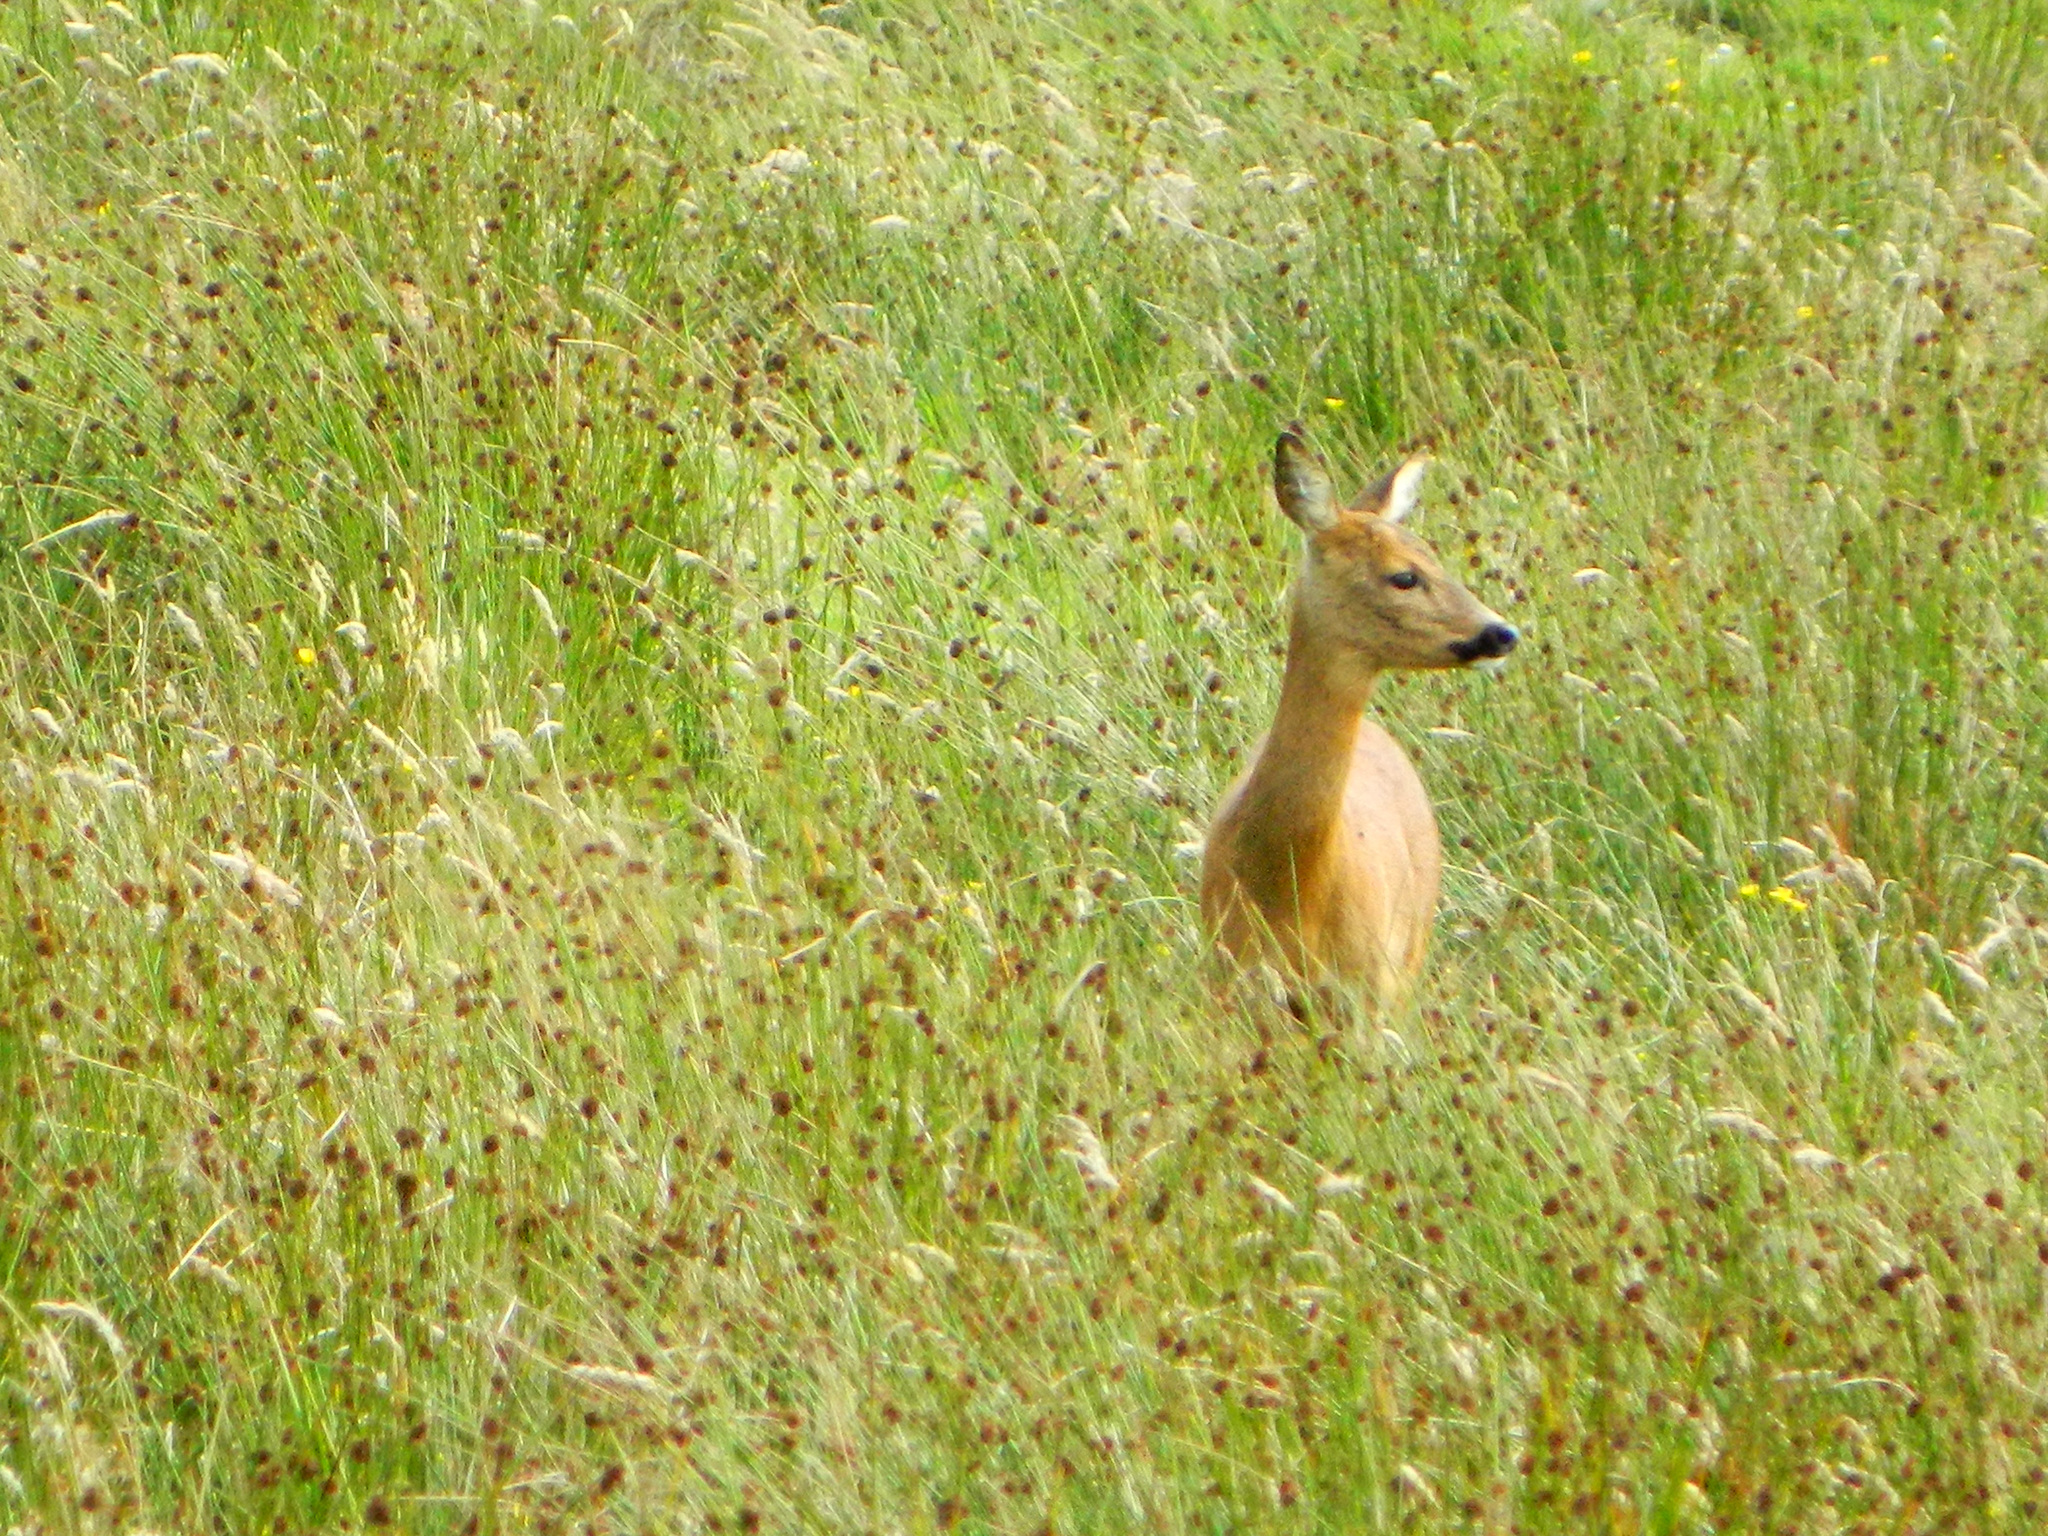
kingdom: Animalia
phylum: Chordata
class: Mammalia
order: Artiodactyla
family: Cervidae
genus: Capreolus
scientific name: Capreolus capreolus
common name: Western roe deer
